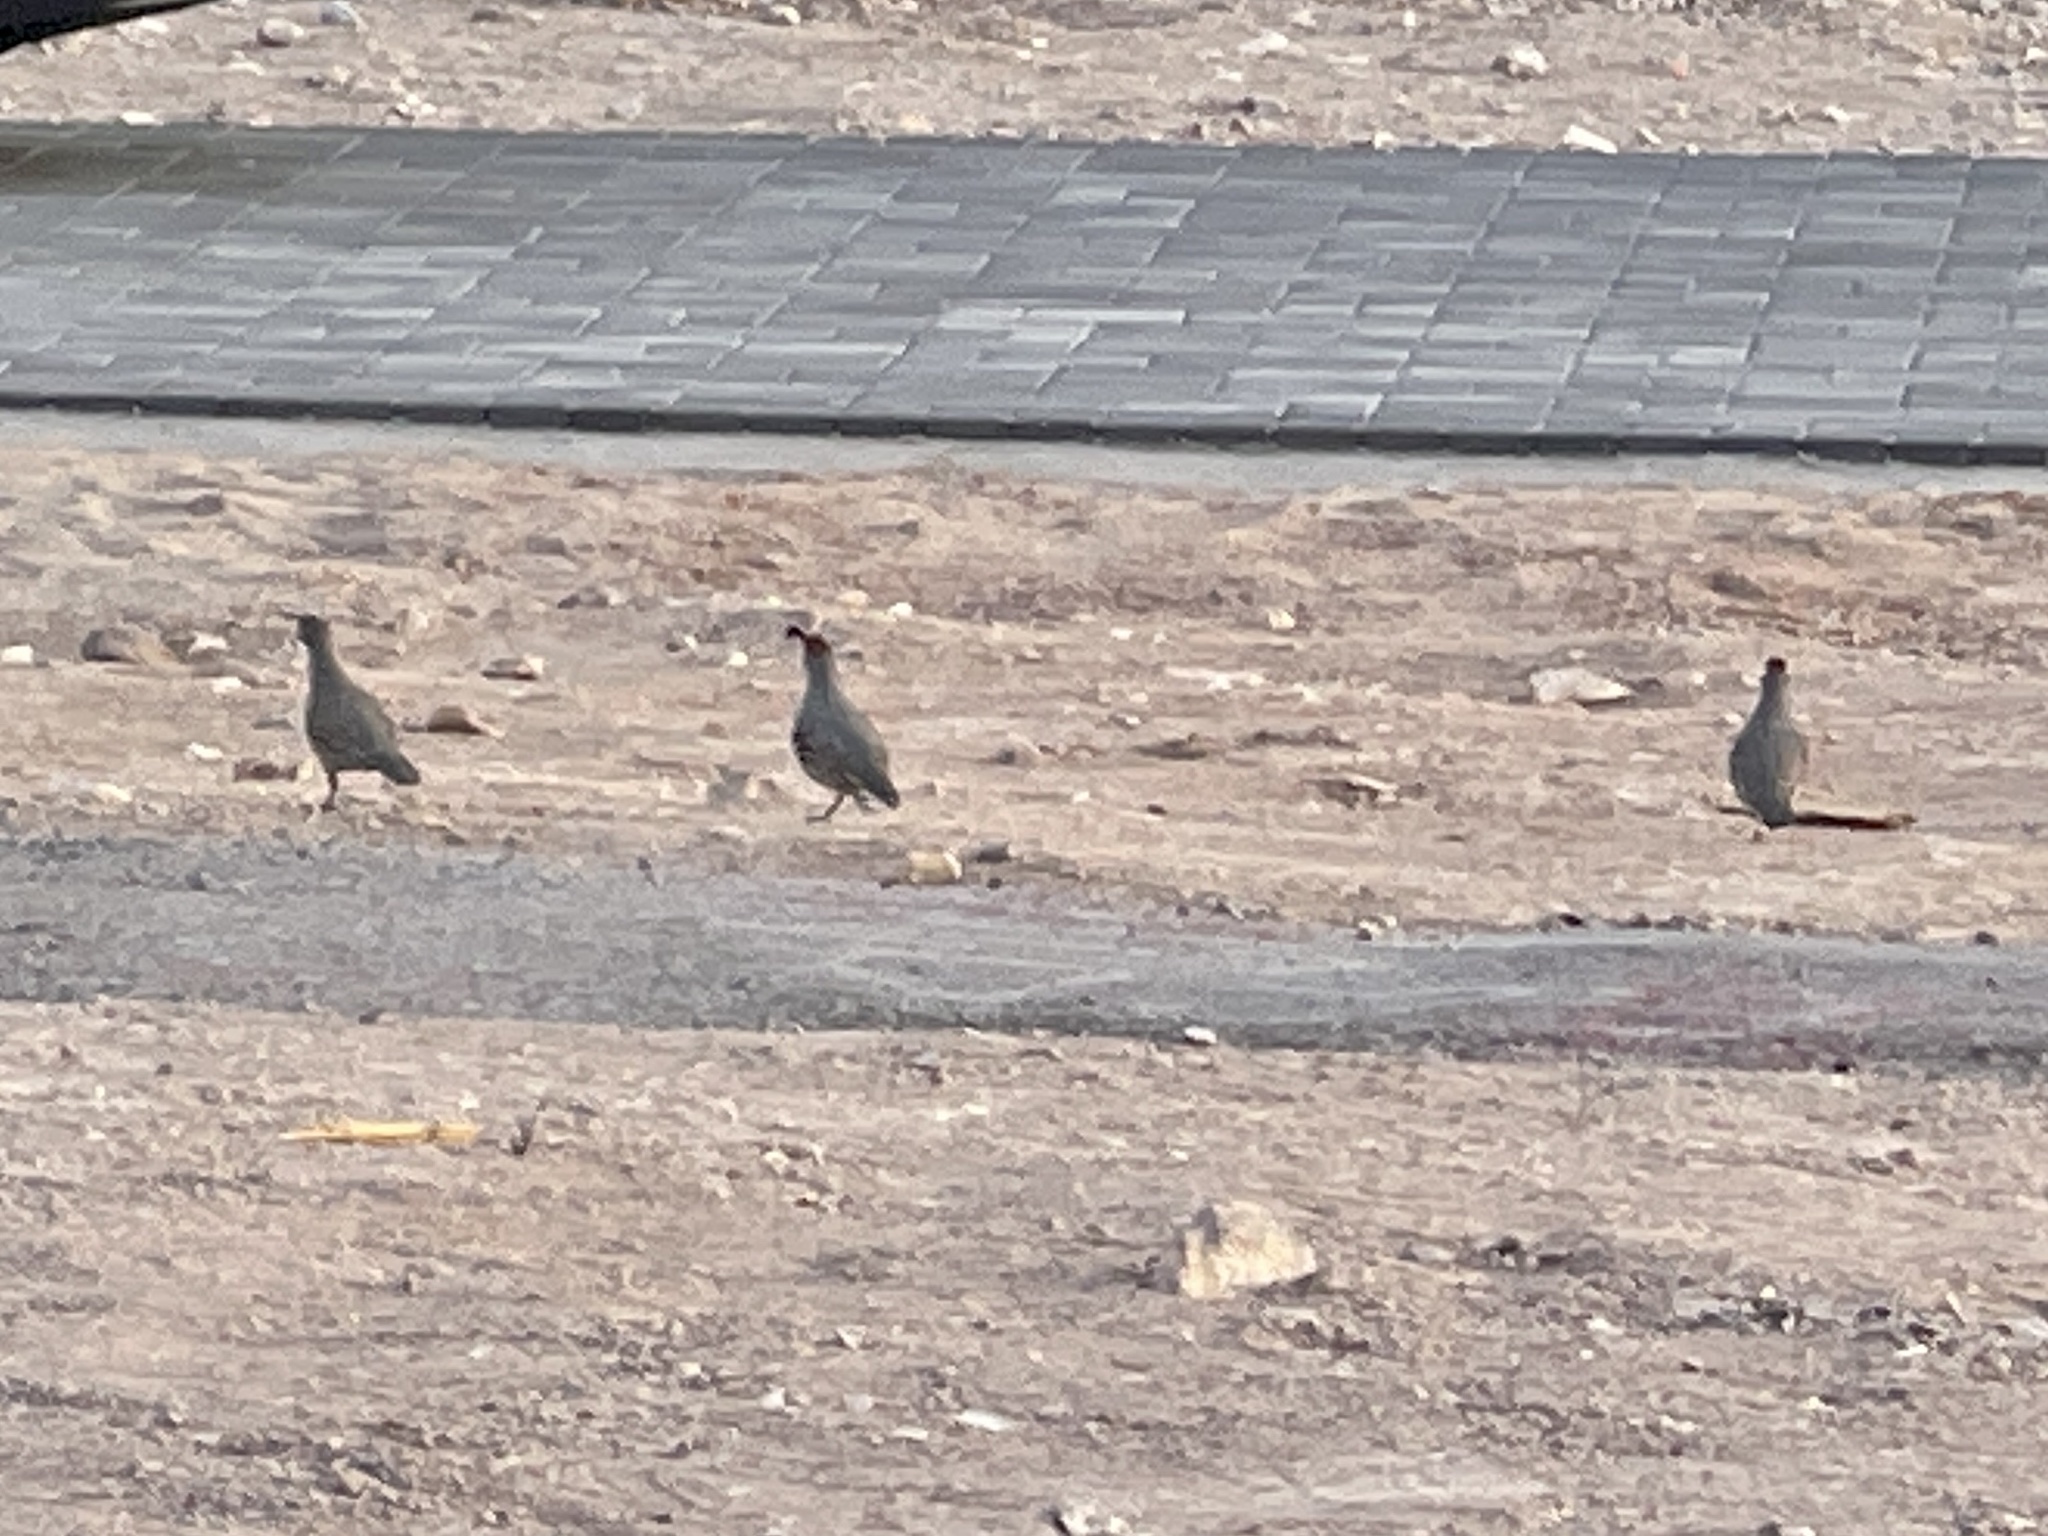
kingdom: Animalia
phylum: Chordata
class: Aves
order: Galliformes
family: Odontophoridae
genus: Callipepla
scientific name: Callipepla gambelii
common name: Gambel's quail
